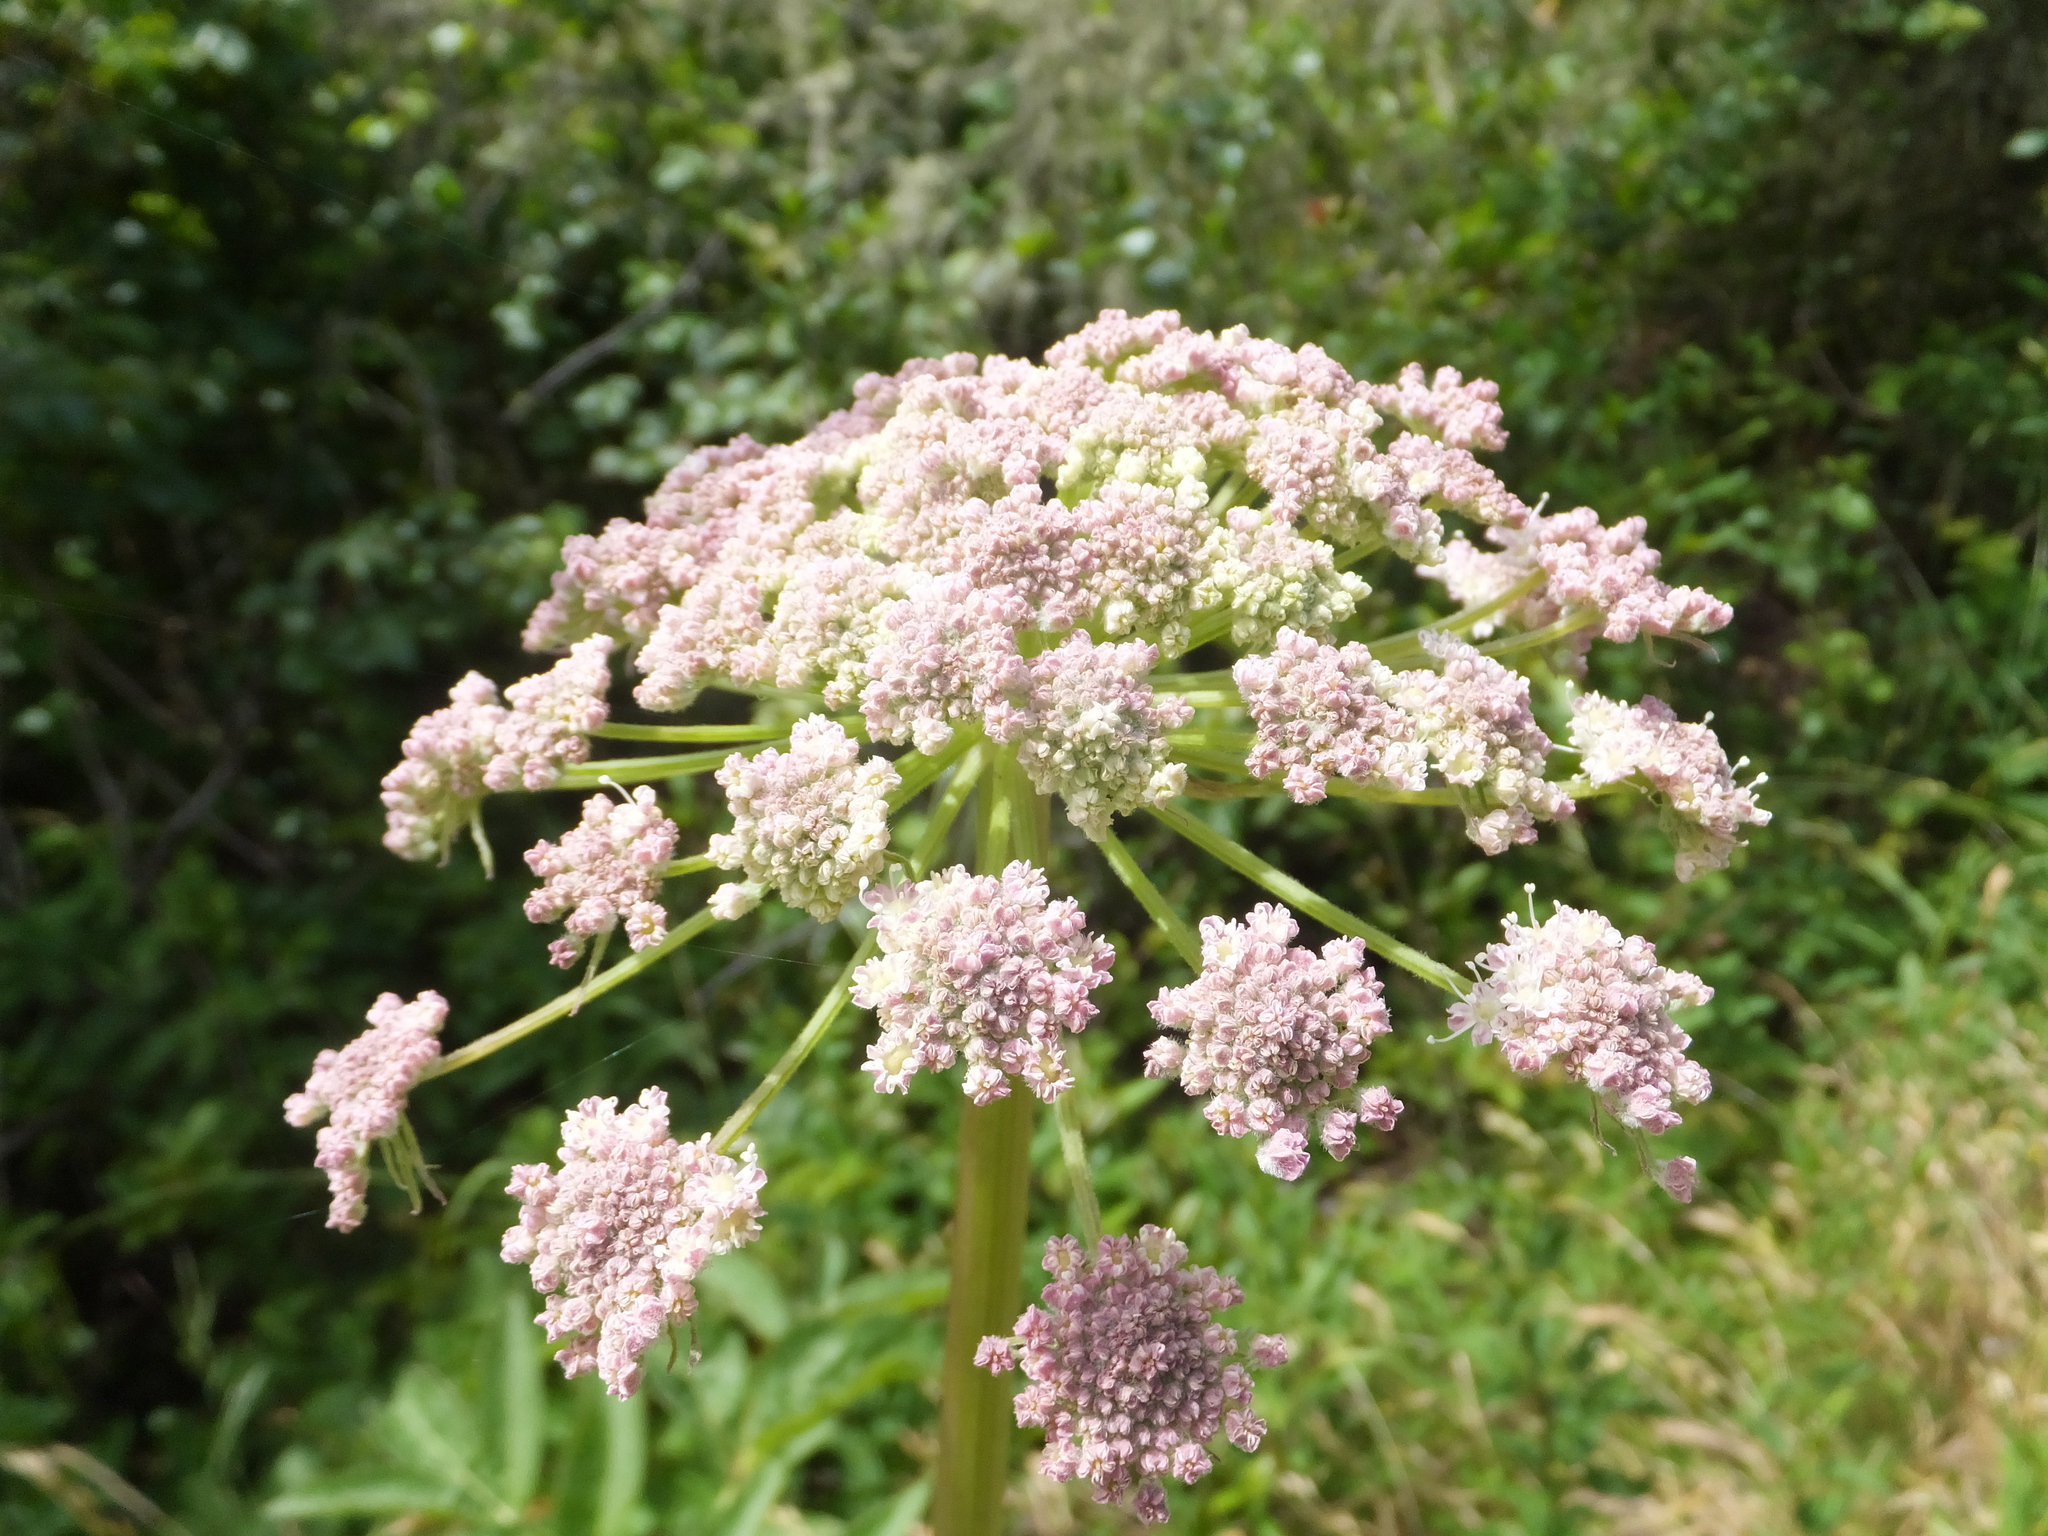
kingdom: Plantae
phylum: Tracheophyta
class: Magnoliopsida
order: Apiales
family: Apiaceae
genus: Angelica
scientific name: Angelica hendersonii
